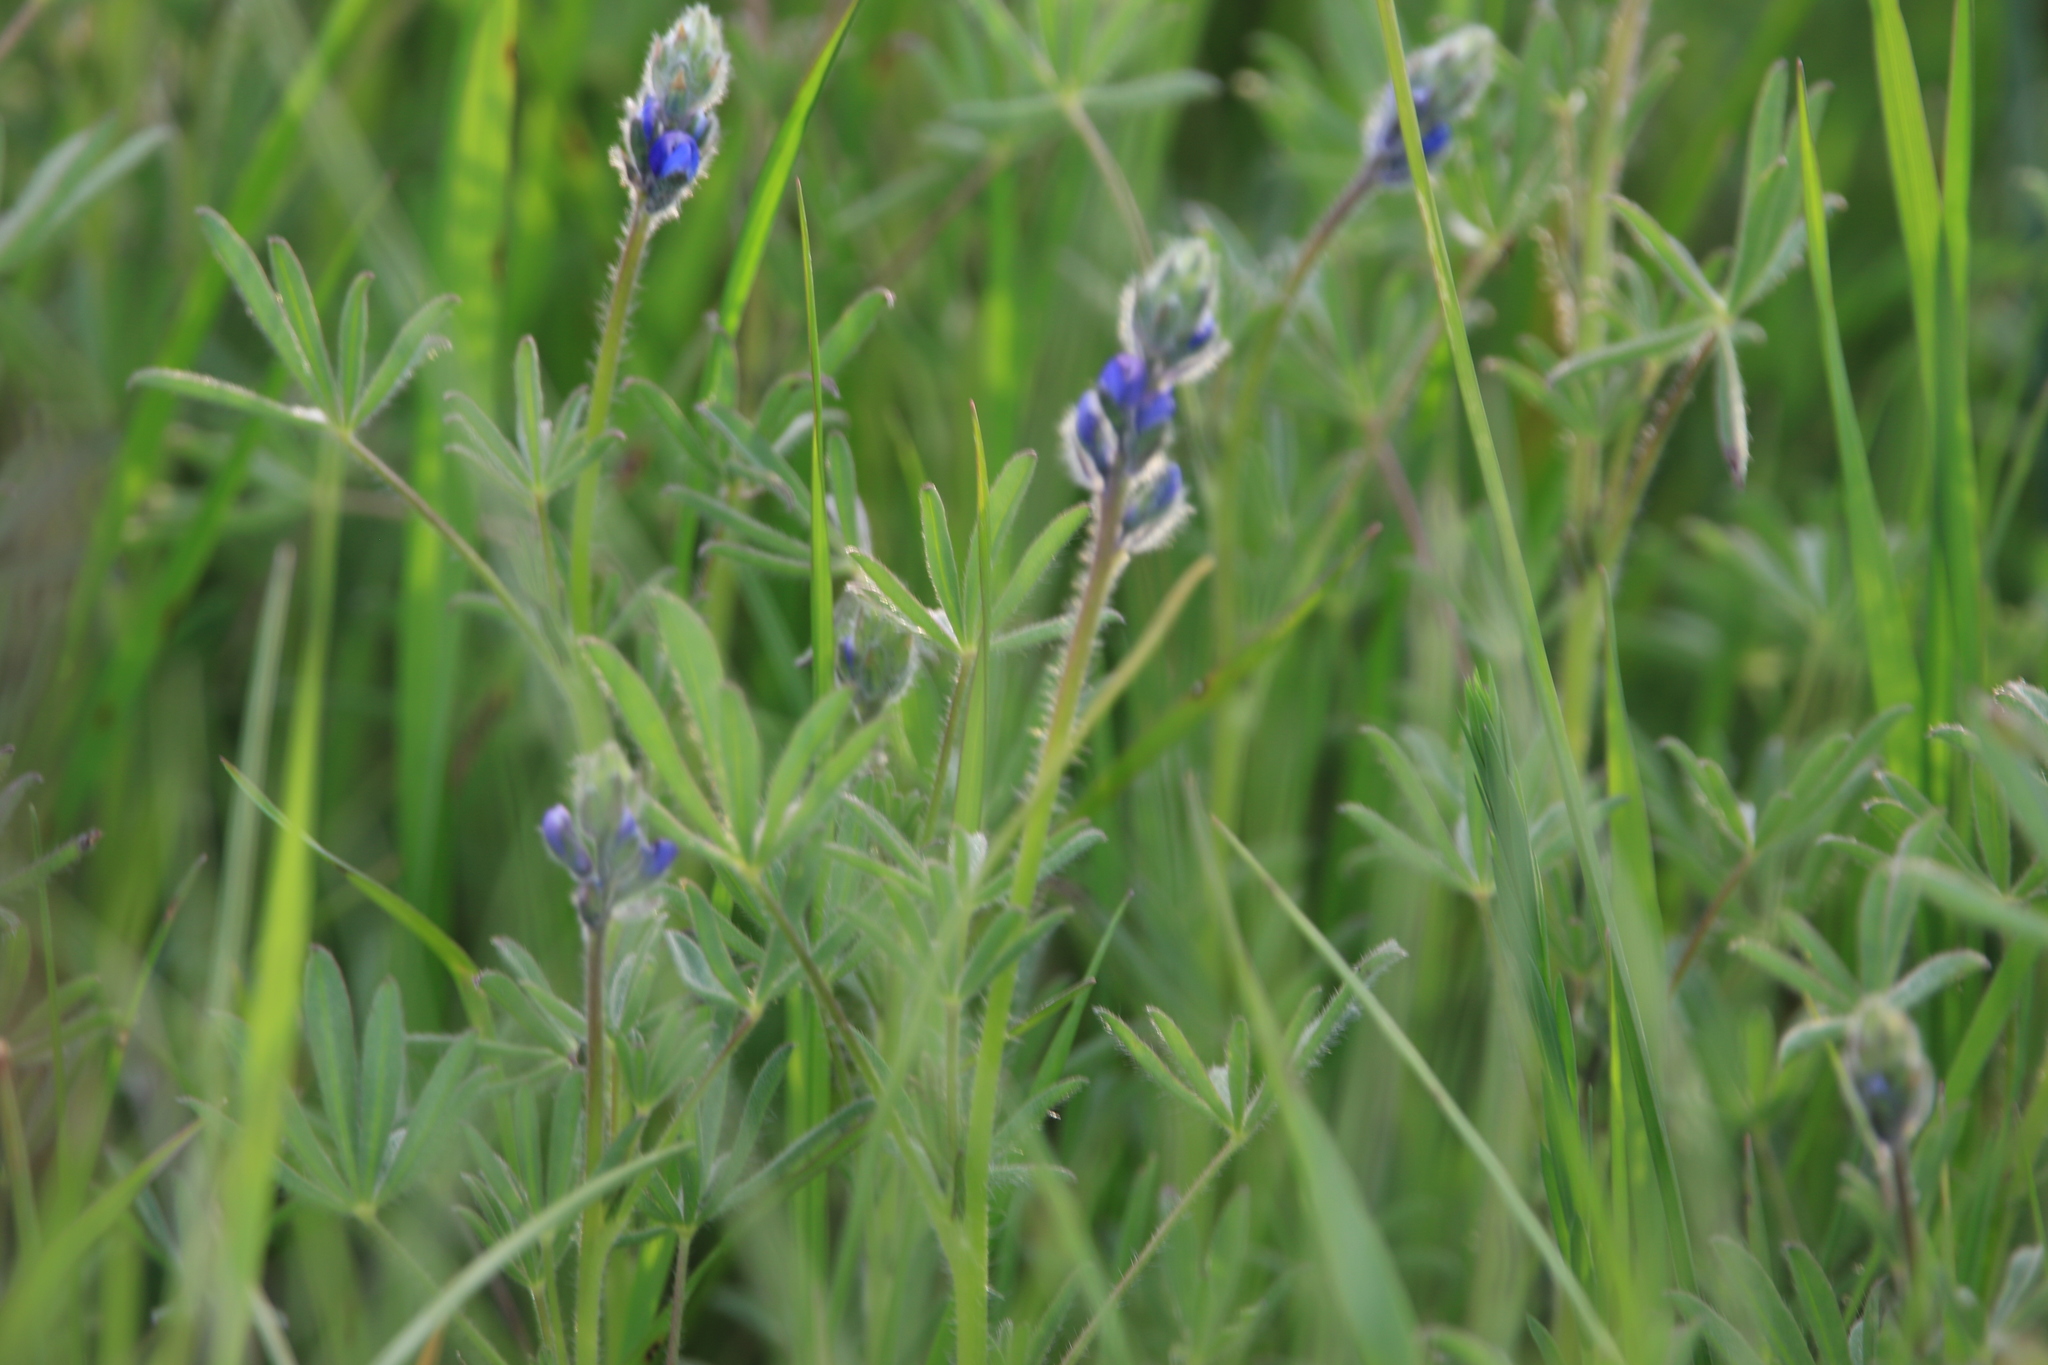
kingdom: Plantae
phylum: Tracheophyta
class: Magnoliopsida
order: Fabales
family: Fabaceae
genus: Lupinus
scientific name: Lupinus bicolor
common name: Miniature lupine
